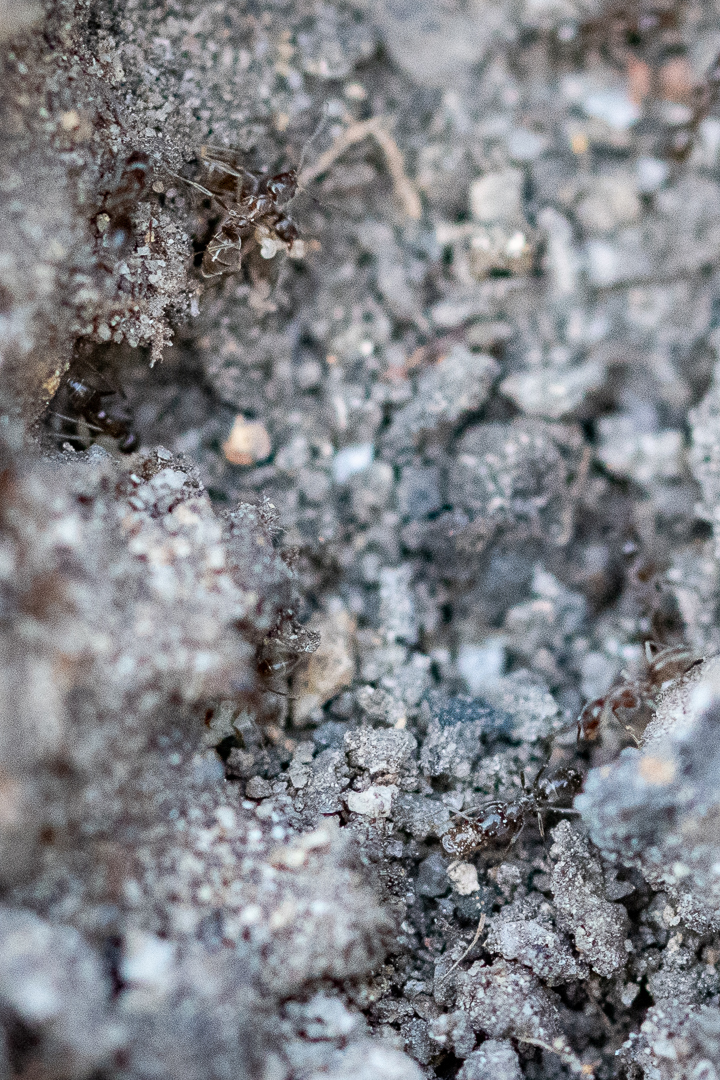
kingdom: Animalia
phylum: Arthropoda
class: Insecta
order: Hymenoptera
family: Formicidae
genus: Linepithema
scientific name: Linepithema humile
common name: Argentine ant
